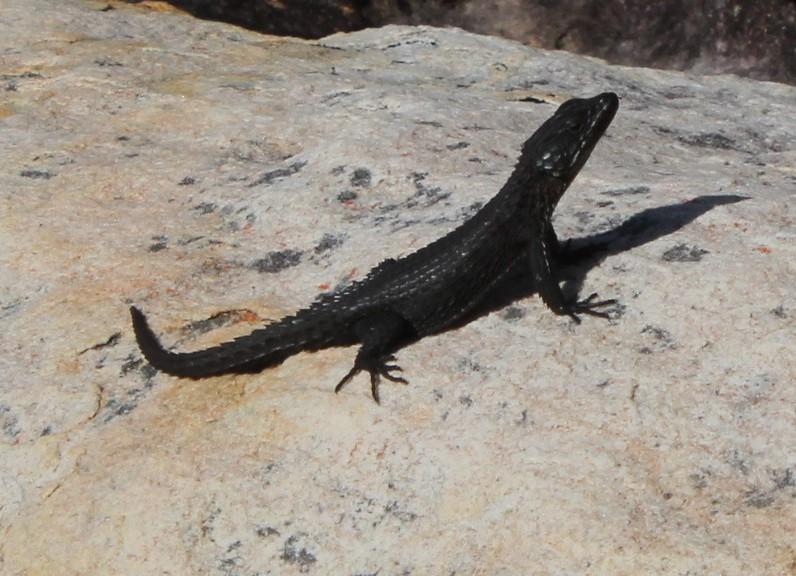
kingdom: Animalia
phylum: Chordata
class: Squamata
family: Cordylidae
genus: Cordylus
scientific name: Cordylus niger
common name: Black girdled lizard
